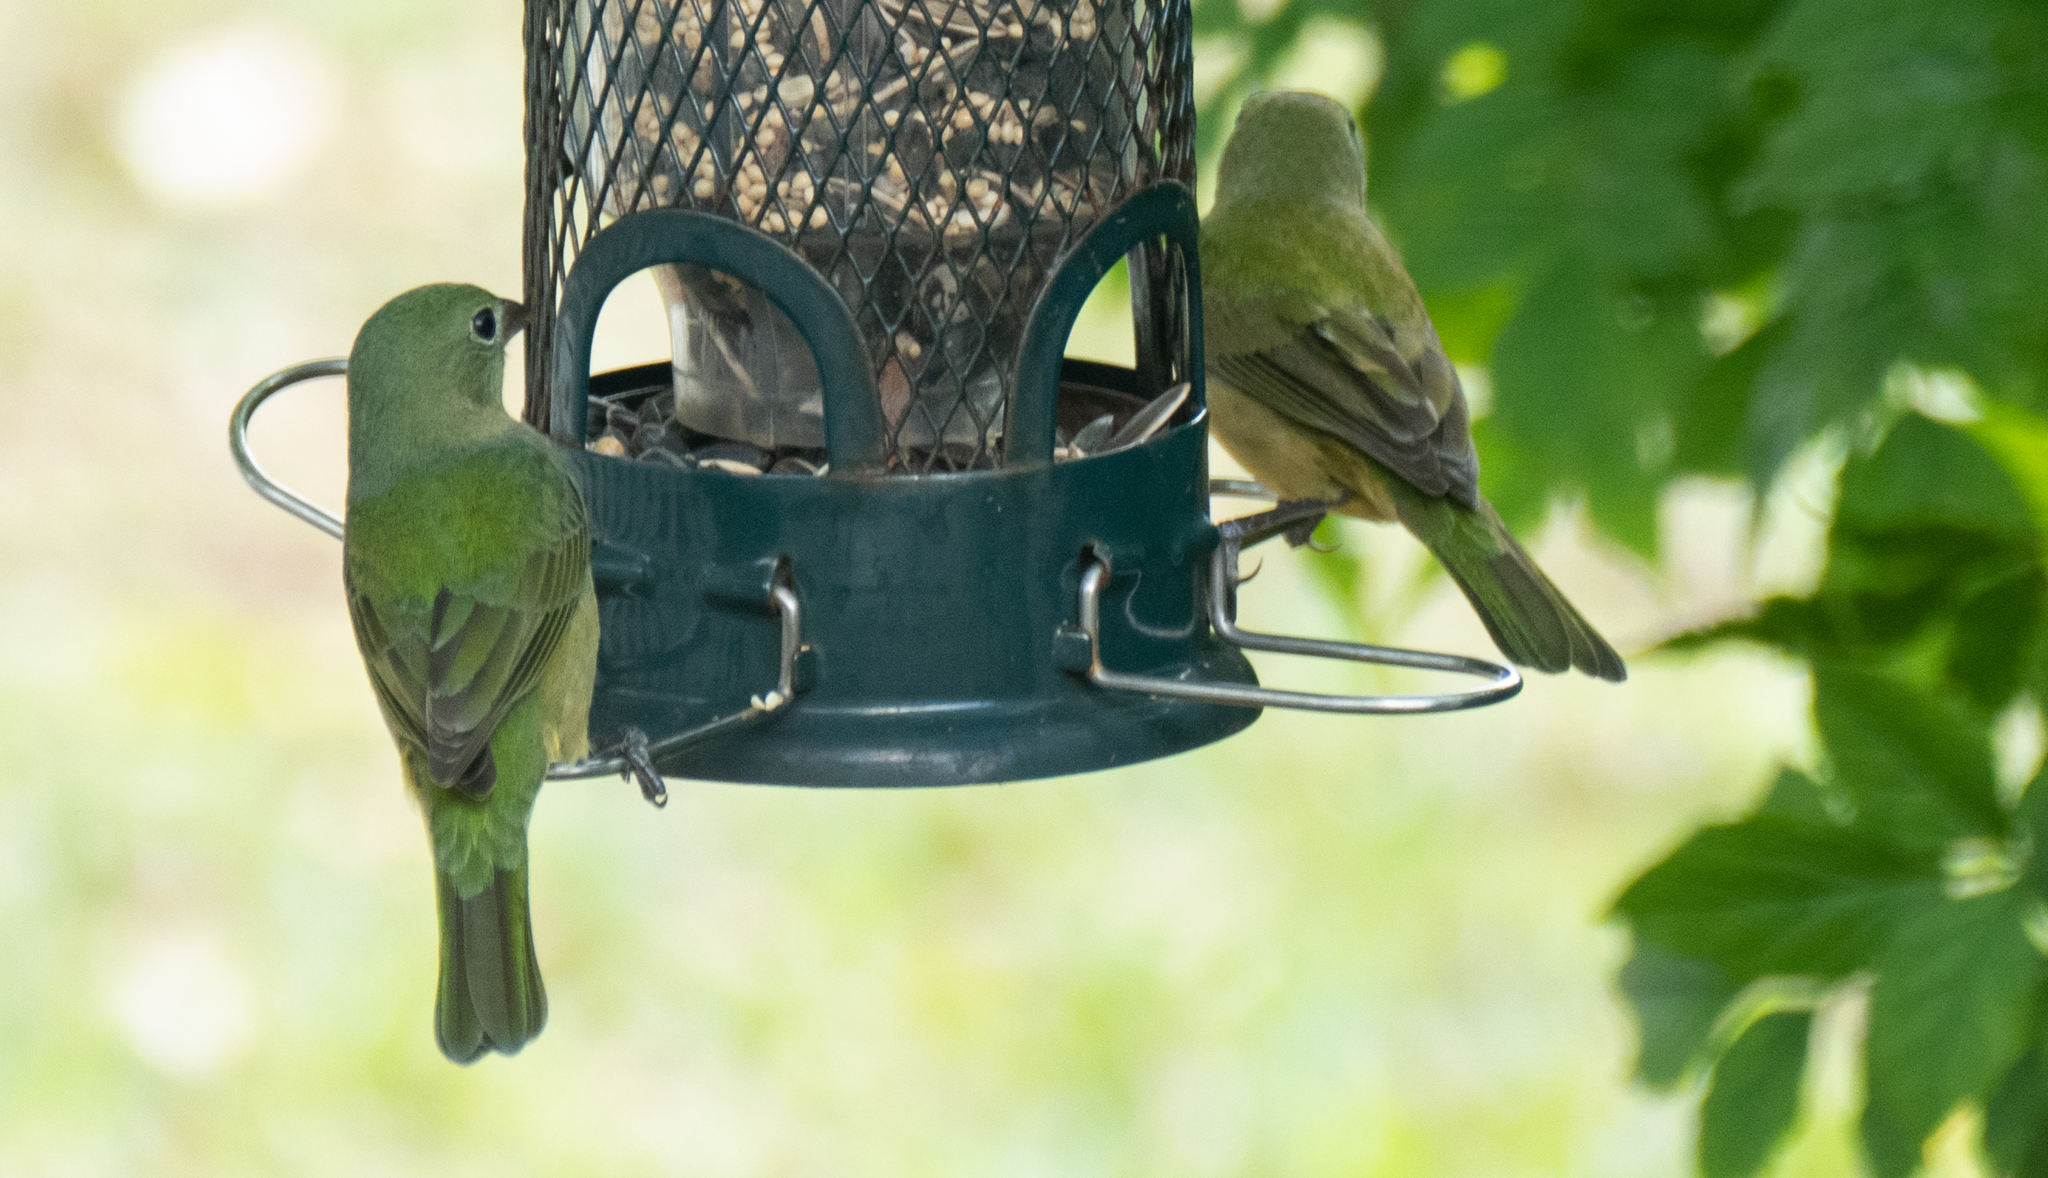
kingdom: Animalia
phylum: Chordata
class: Aves
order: Passeriformes
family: Cardinalidae
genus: Passerina
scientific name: Passerina ciris
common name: Painted bunting
